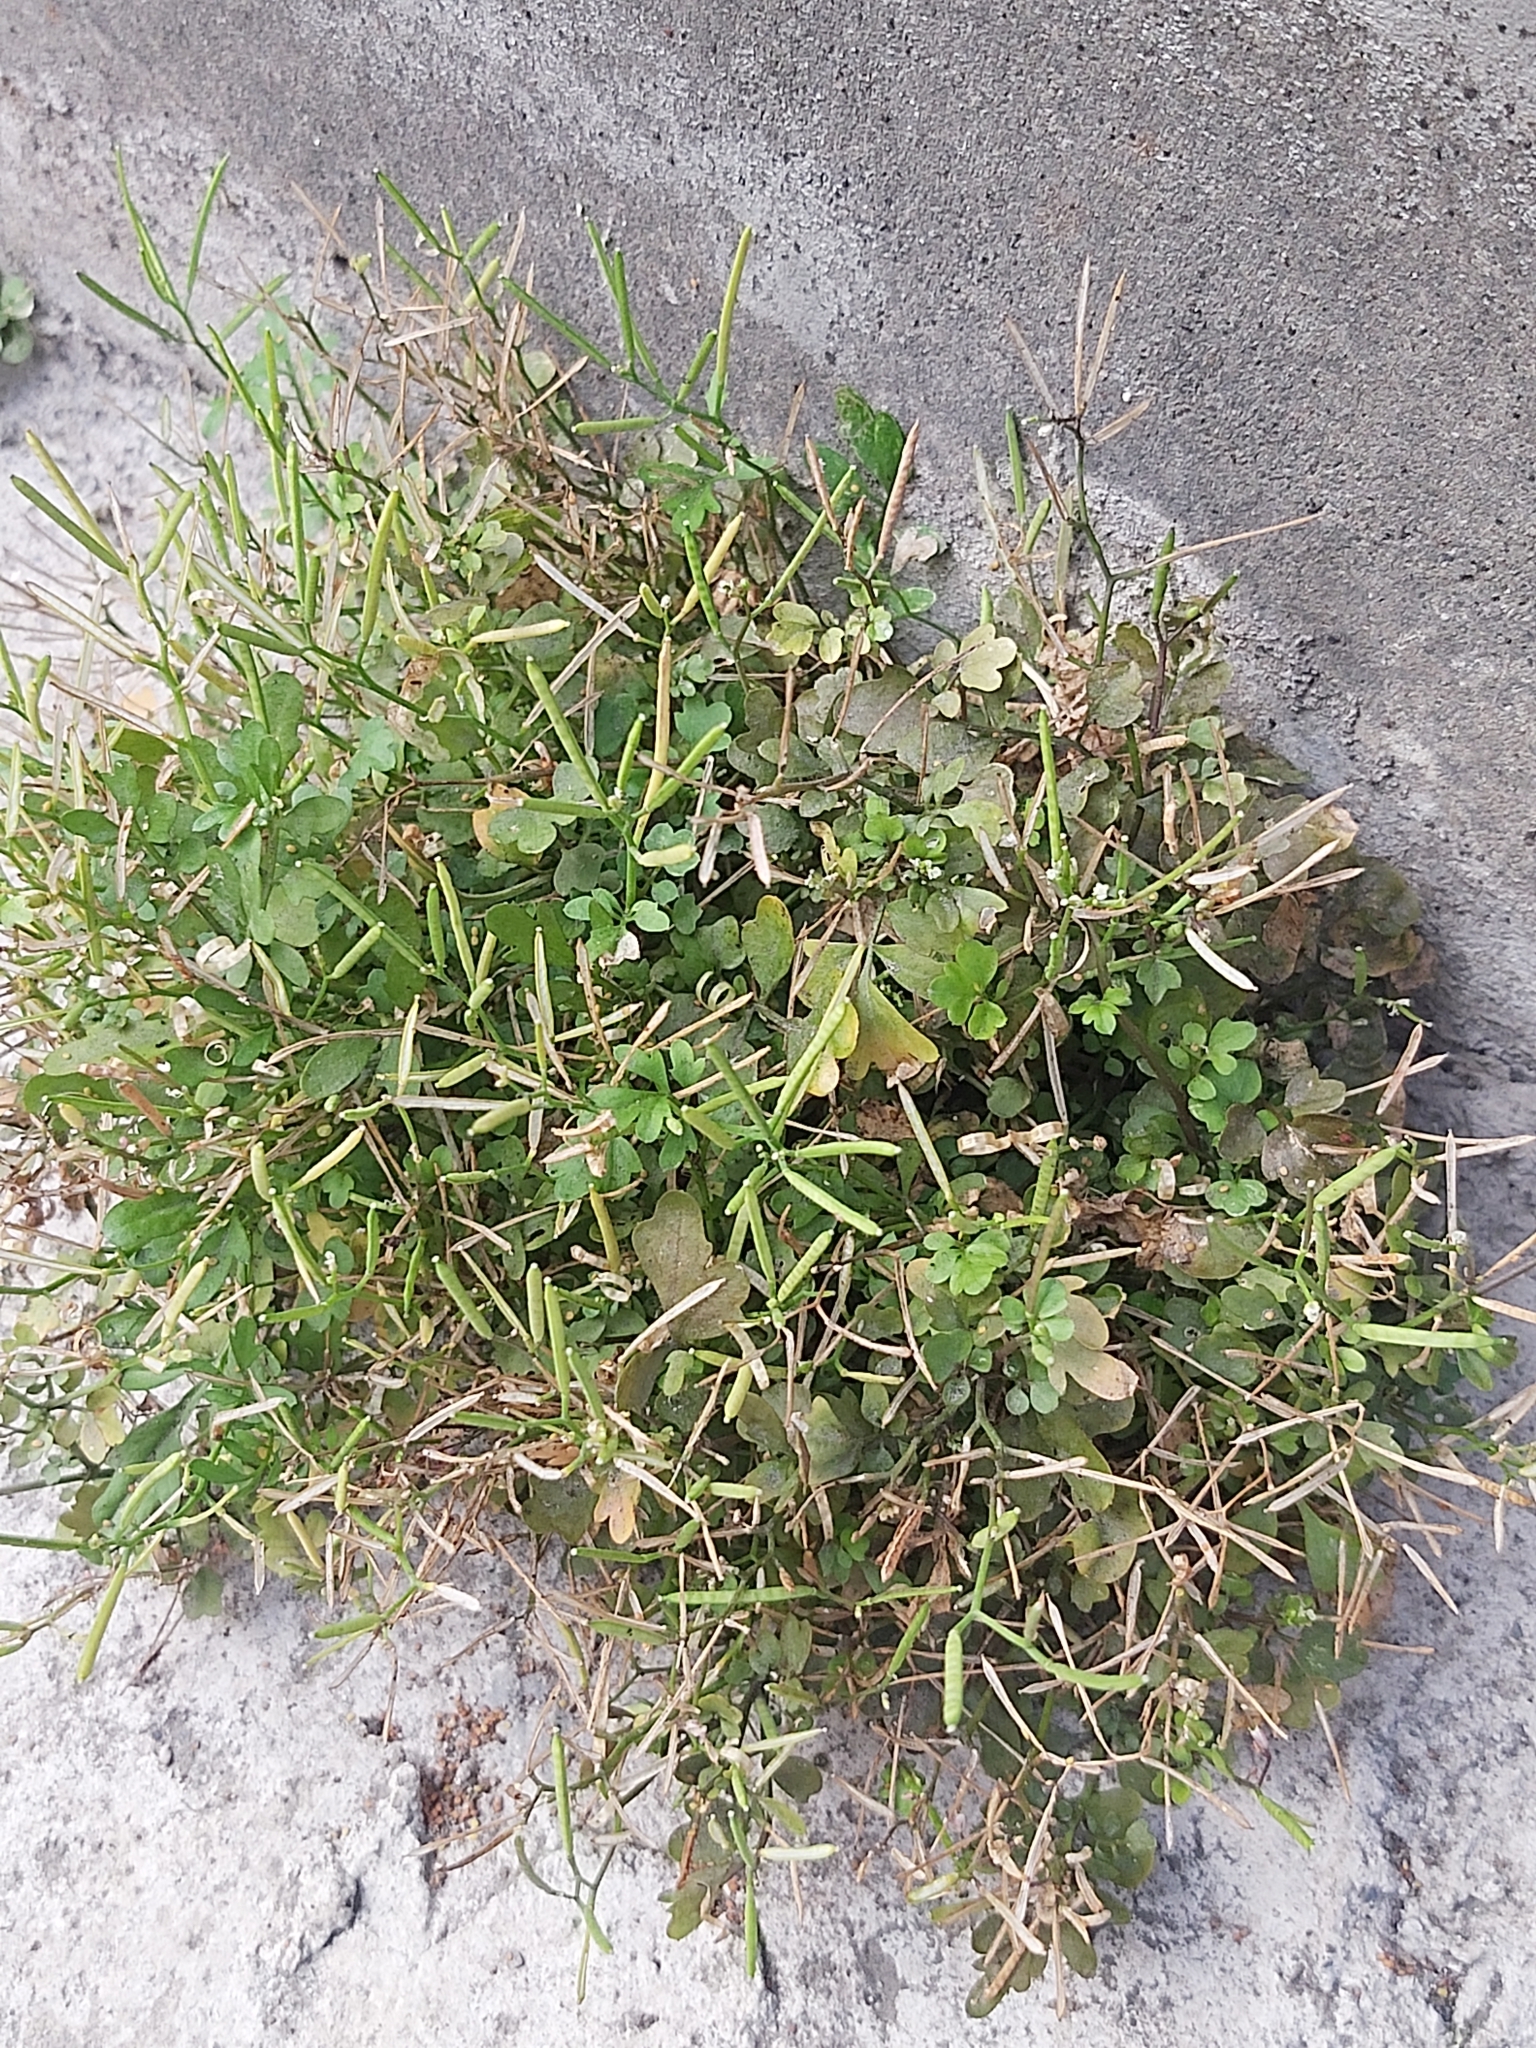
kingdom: Plantae
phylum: Tracheophyta
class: Magnoliopsida
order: Brassicales
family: Brassicaceae
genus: Cardamine
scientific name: Cardamine flexuosa
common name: Woodland bittercress
